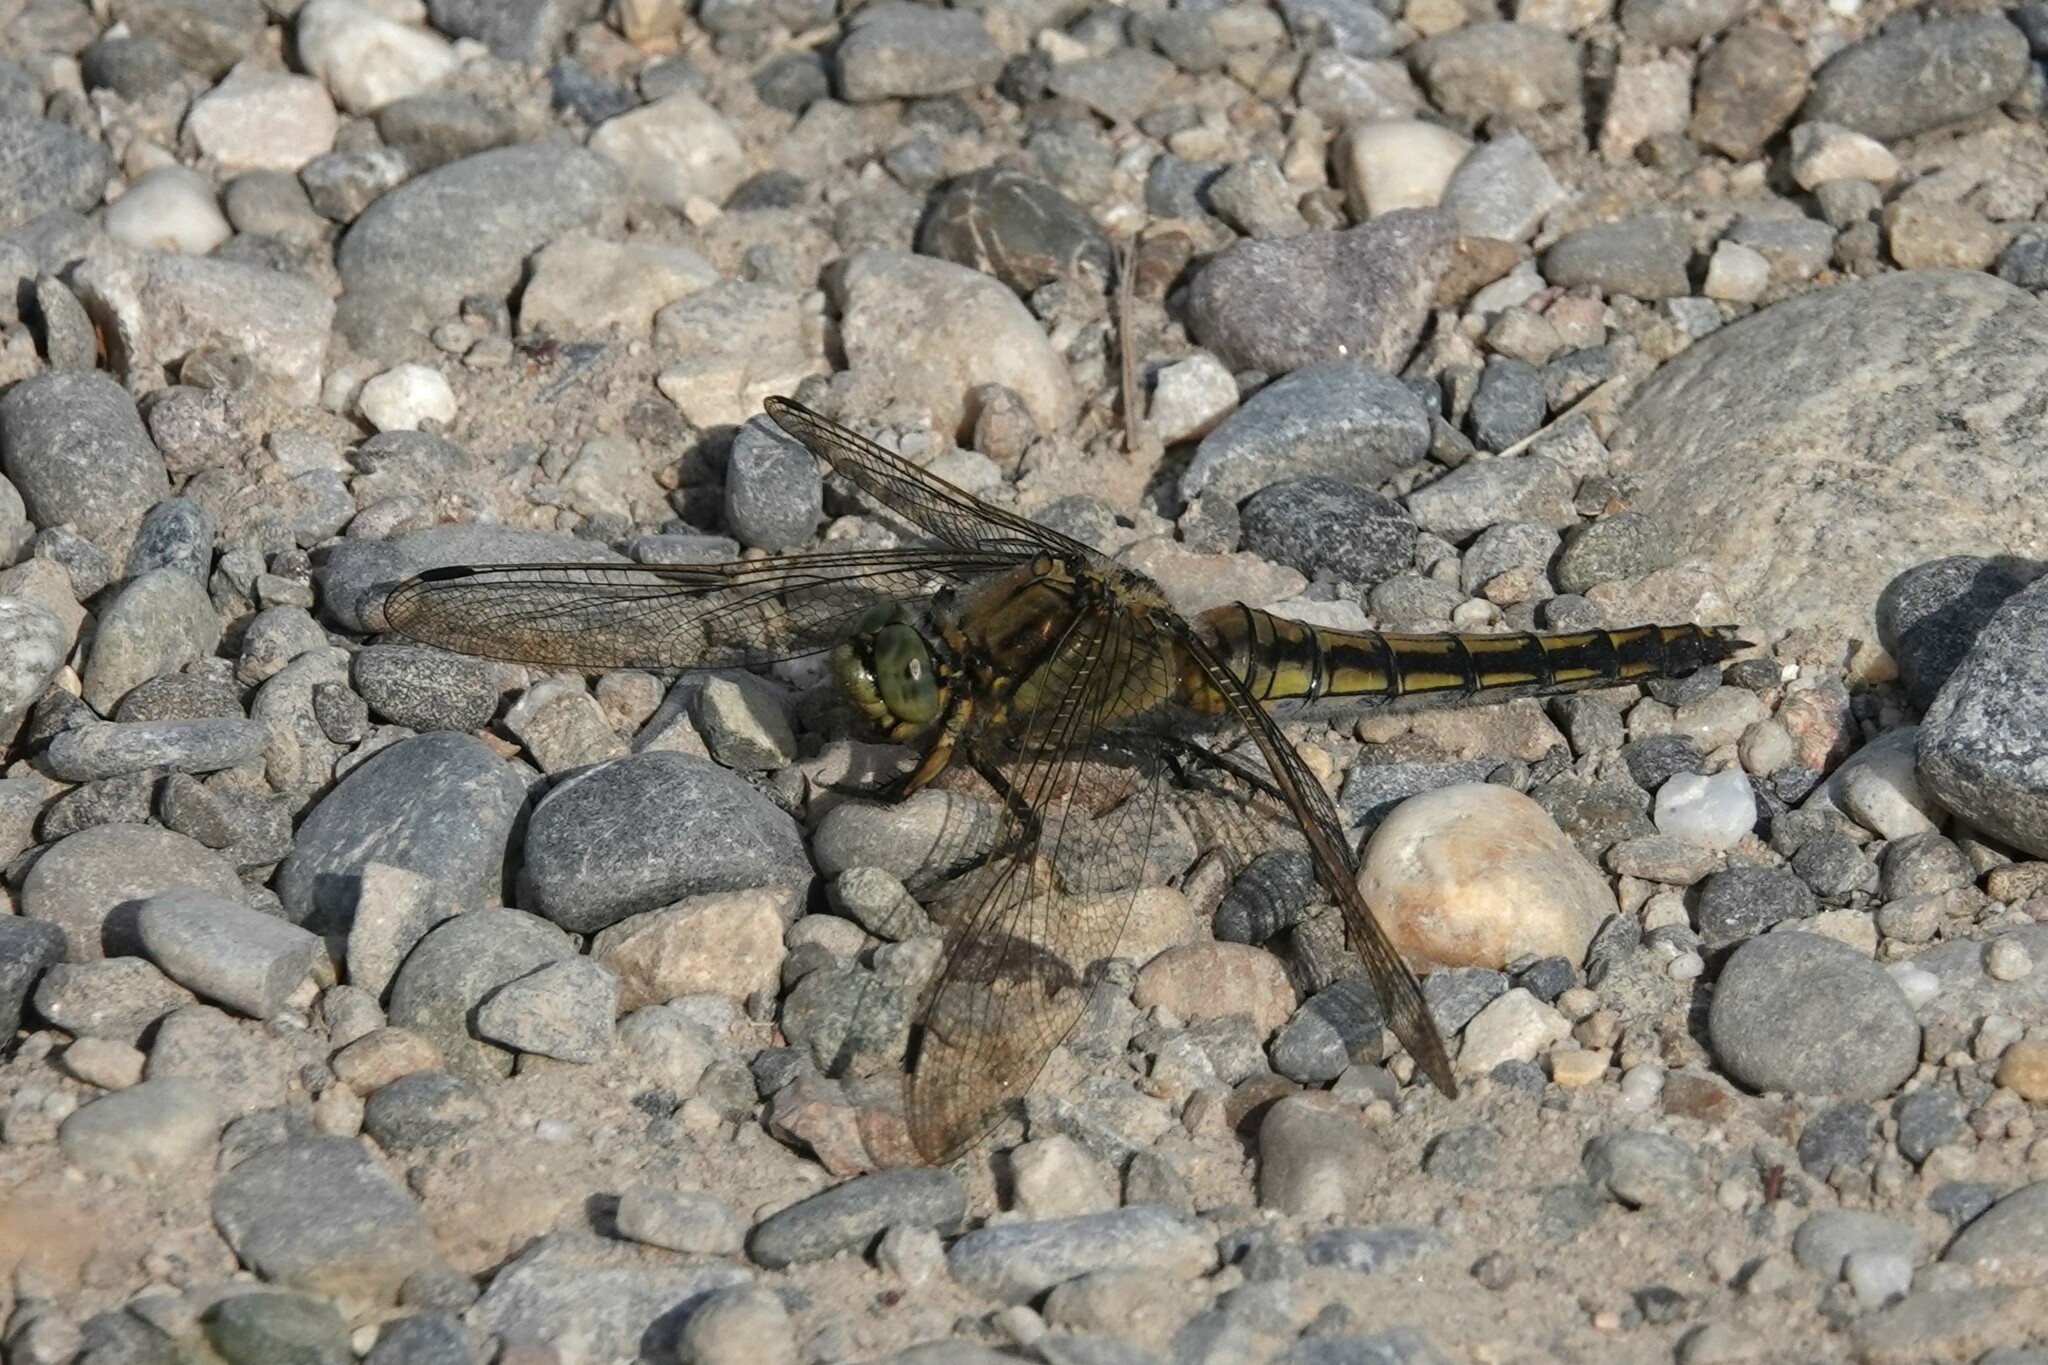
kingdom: Animalia
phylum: Arthropoda
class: Insecta
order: Odonata
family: Libellulidae
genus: Orthetrum
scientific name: Orthetrum cancellatum
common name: Black-tailed skimmer
